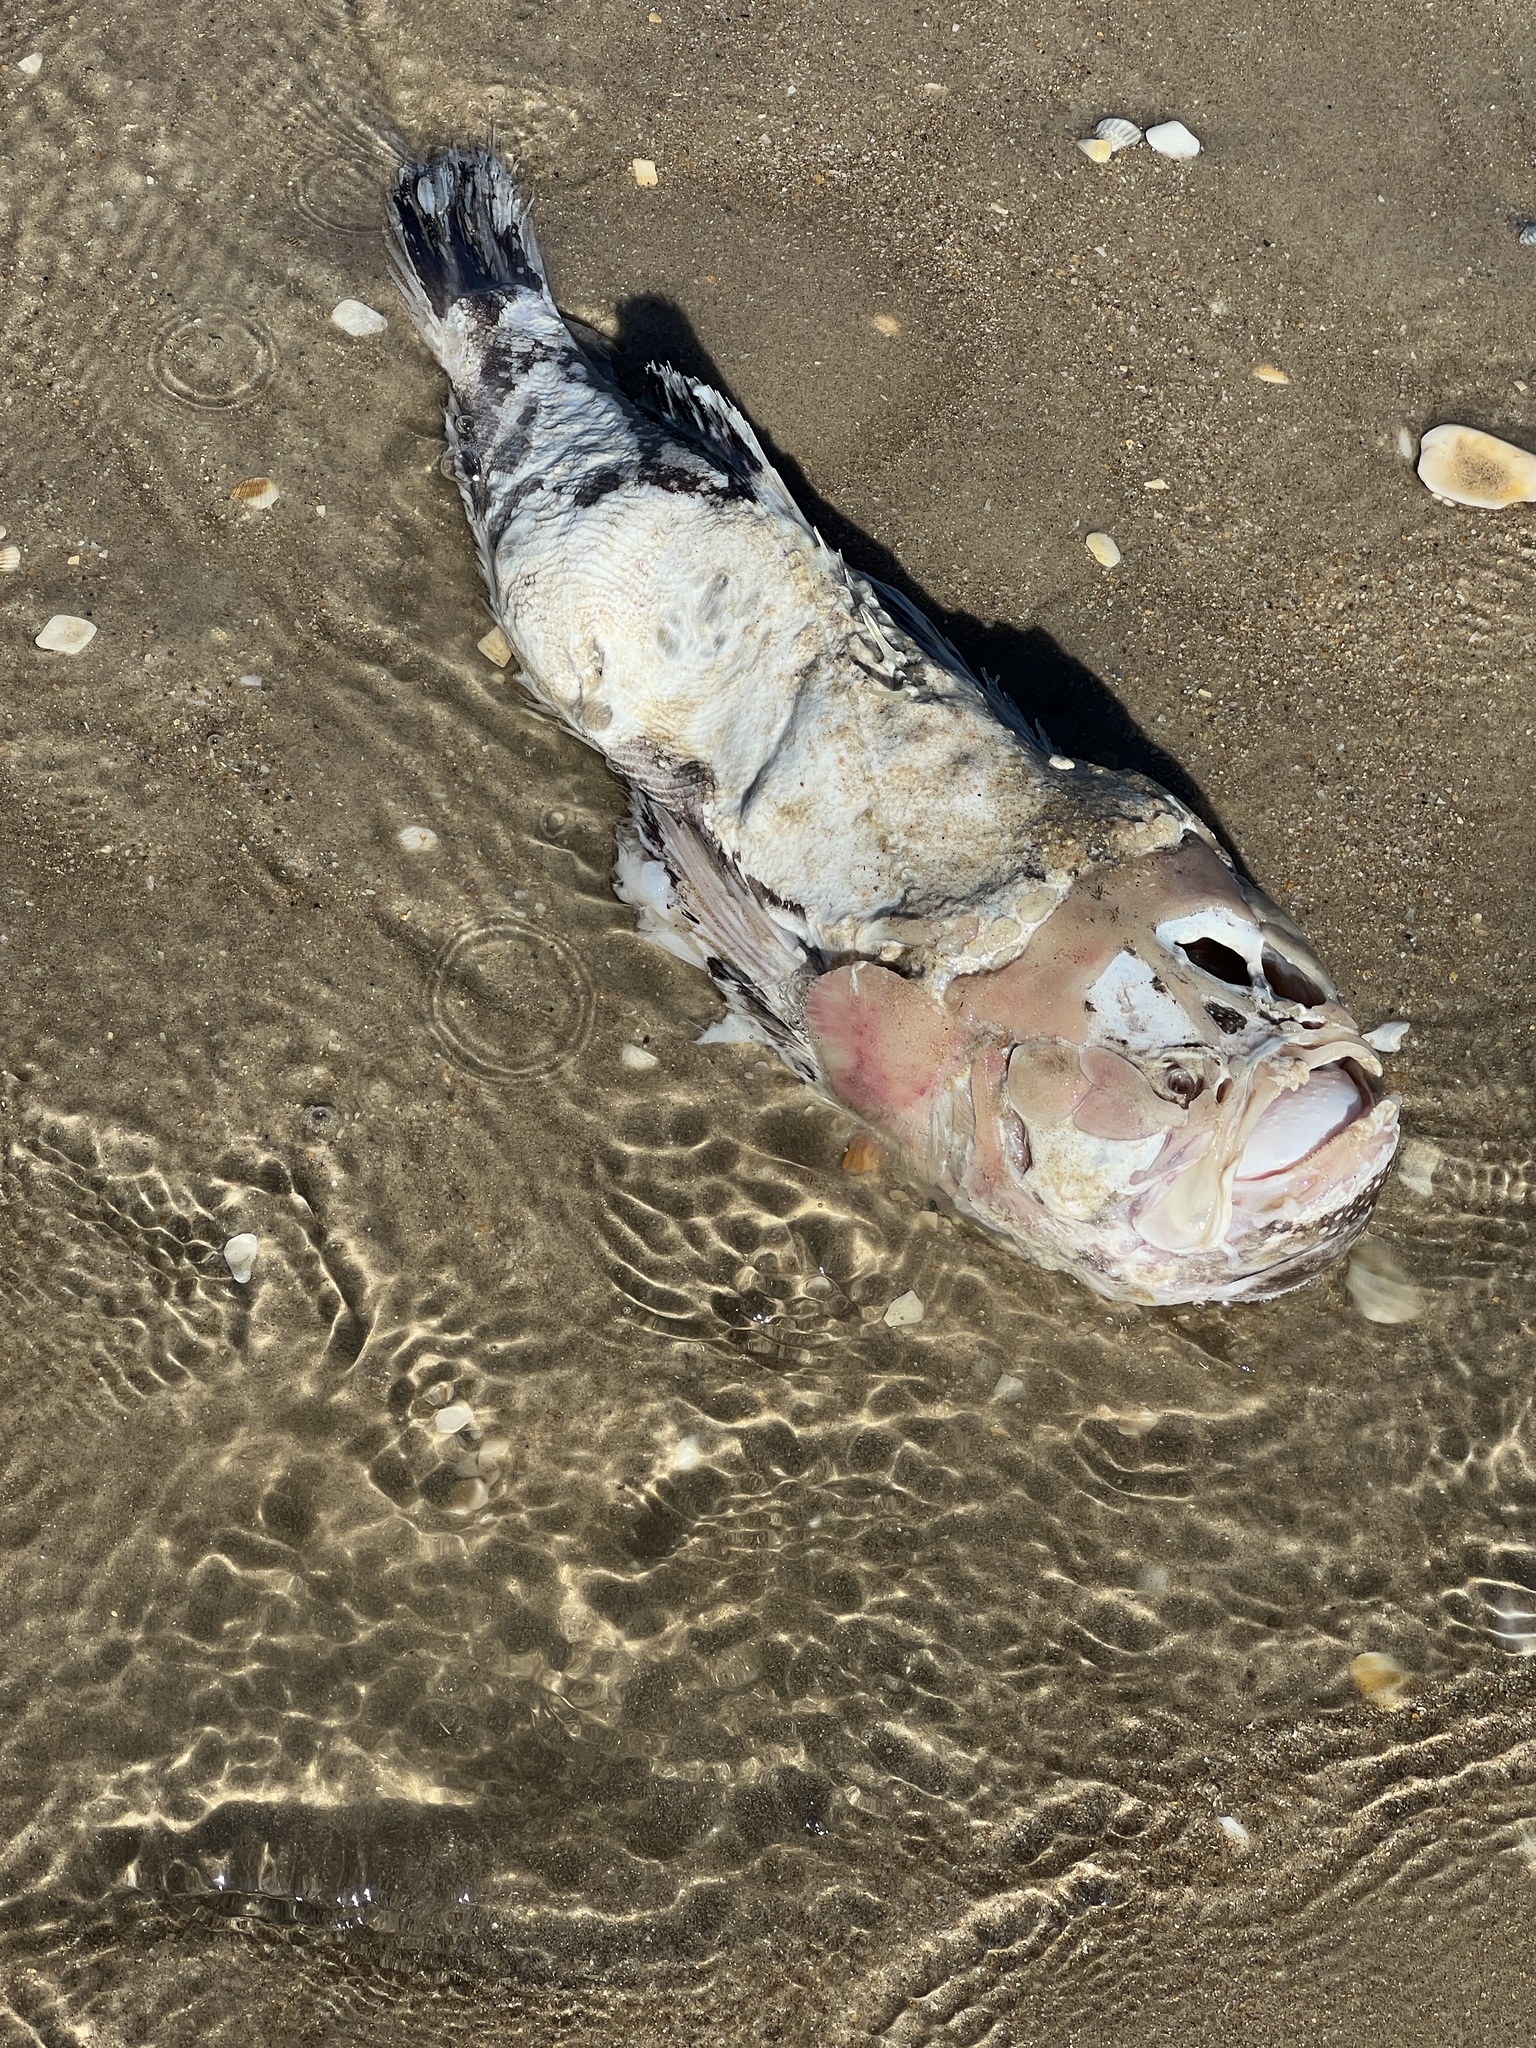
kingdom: Animalia
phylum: Chordata
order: Perciformes
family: Uranoscopidae
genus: Astroscopus
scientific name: Astroscopus y-graecum
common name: Southern stargazer
